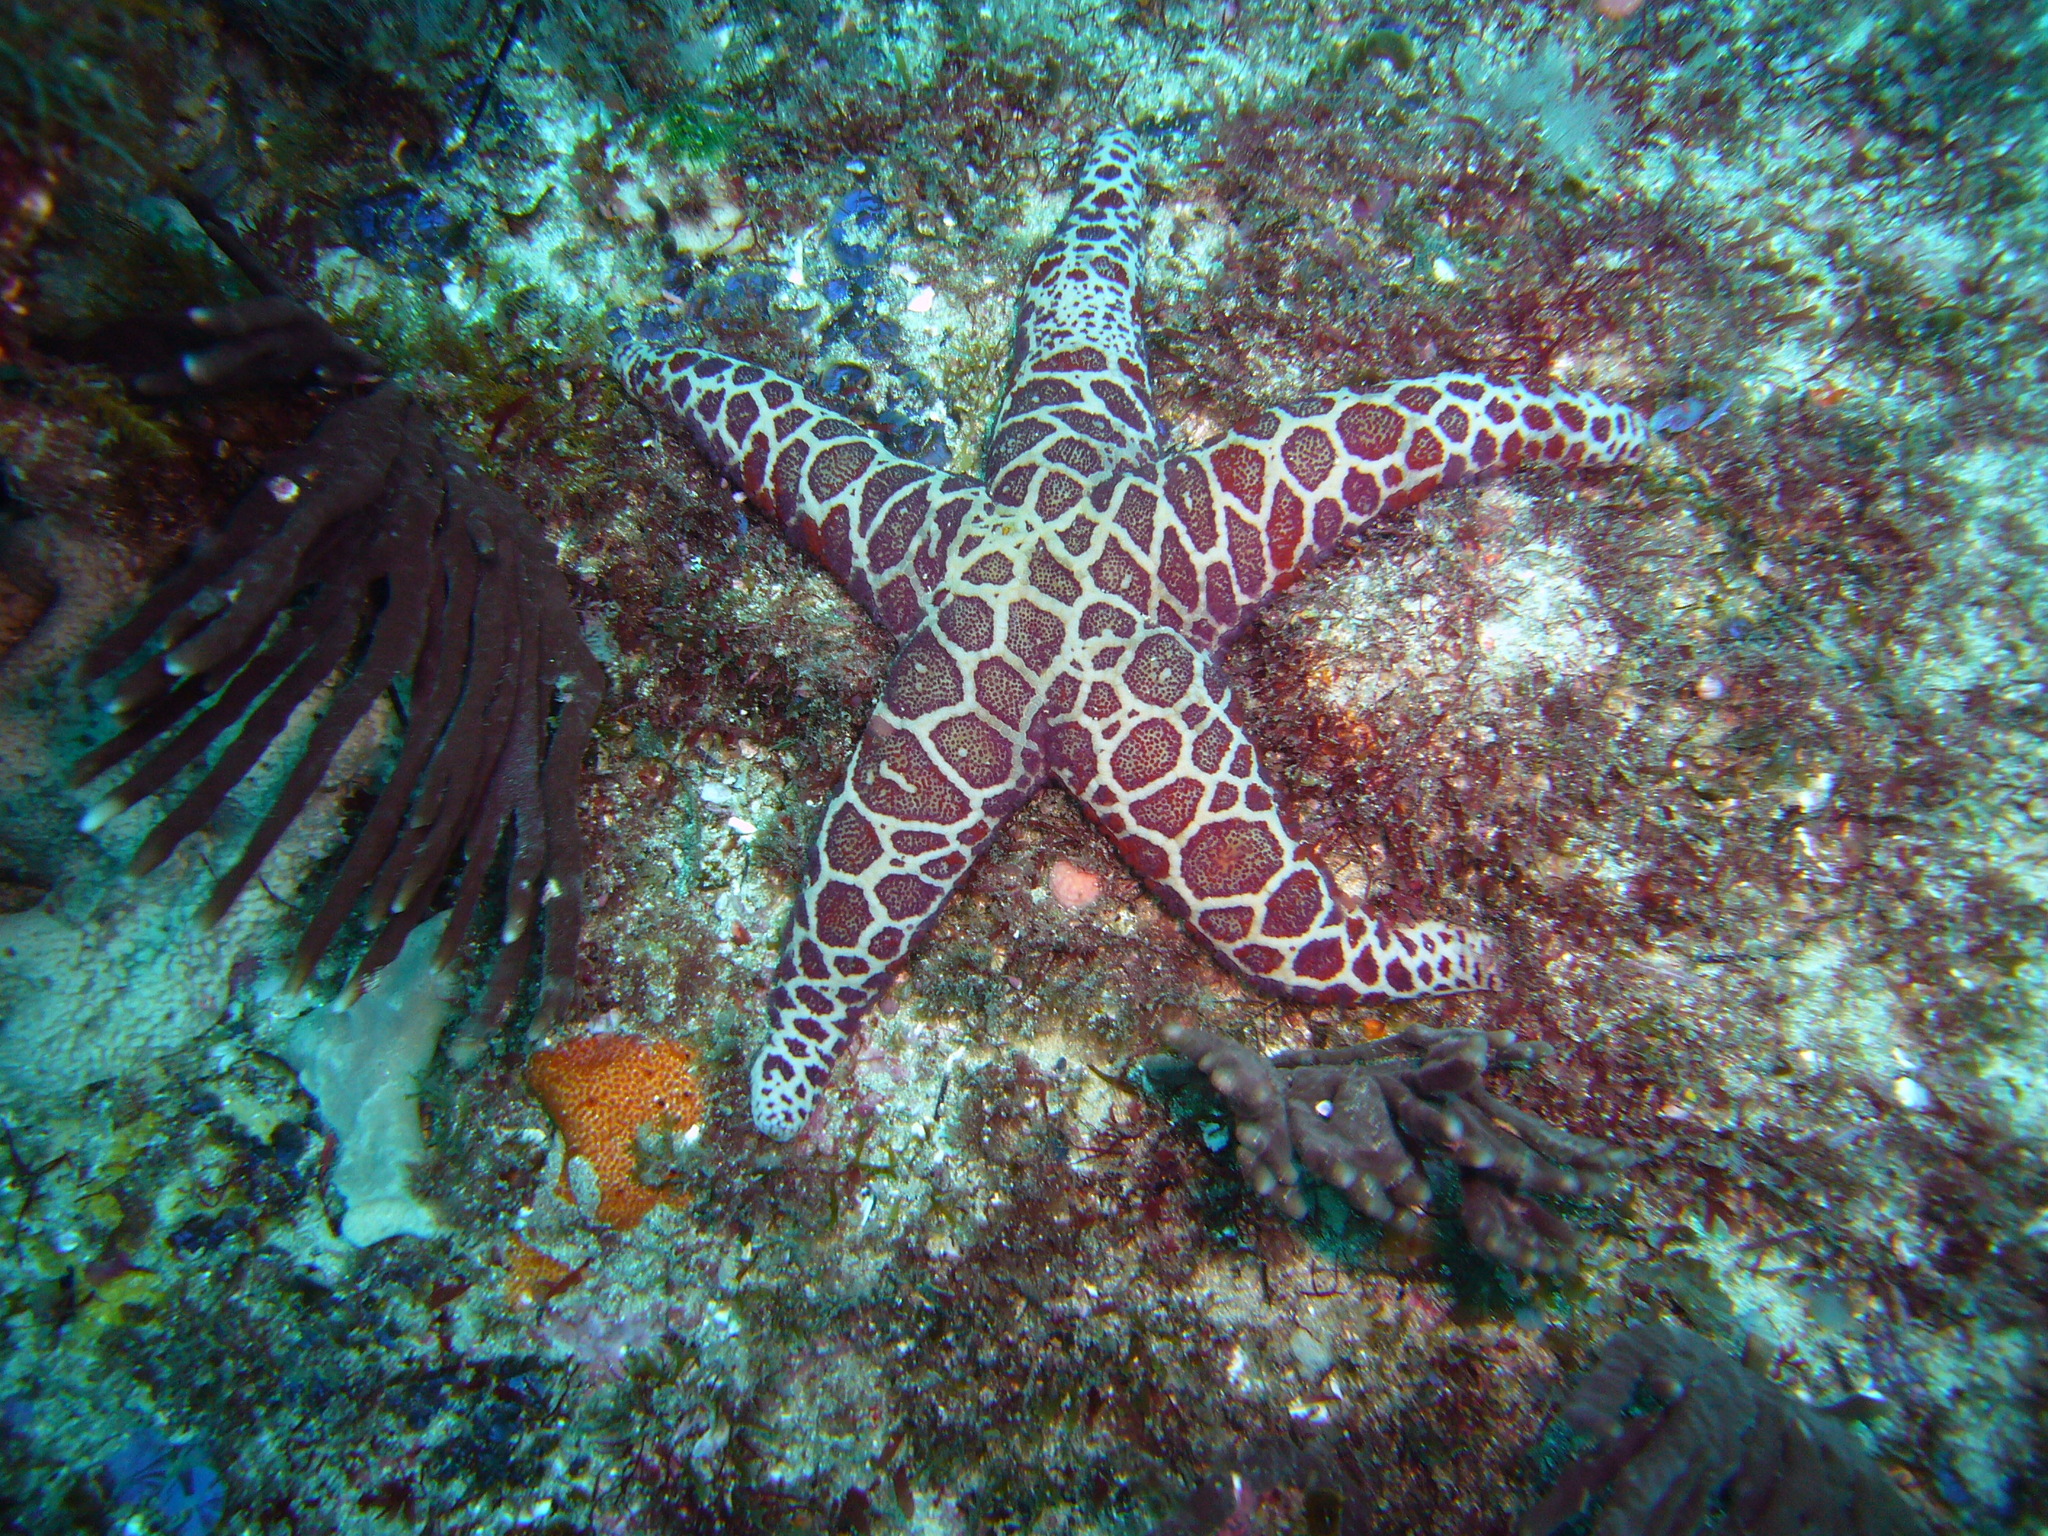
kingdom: Animalia
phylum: Echinodermata
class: Asteroidea
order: Spinulosida
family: Echinasteridae
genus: Plectaster
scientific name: Plectaster decanus
